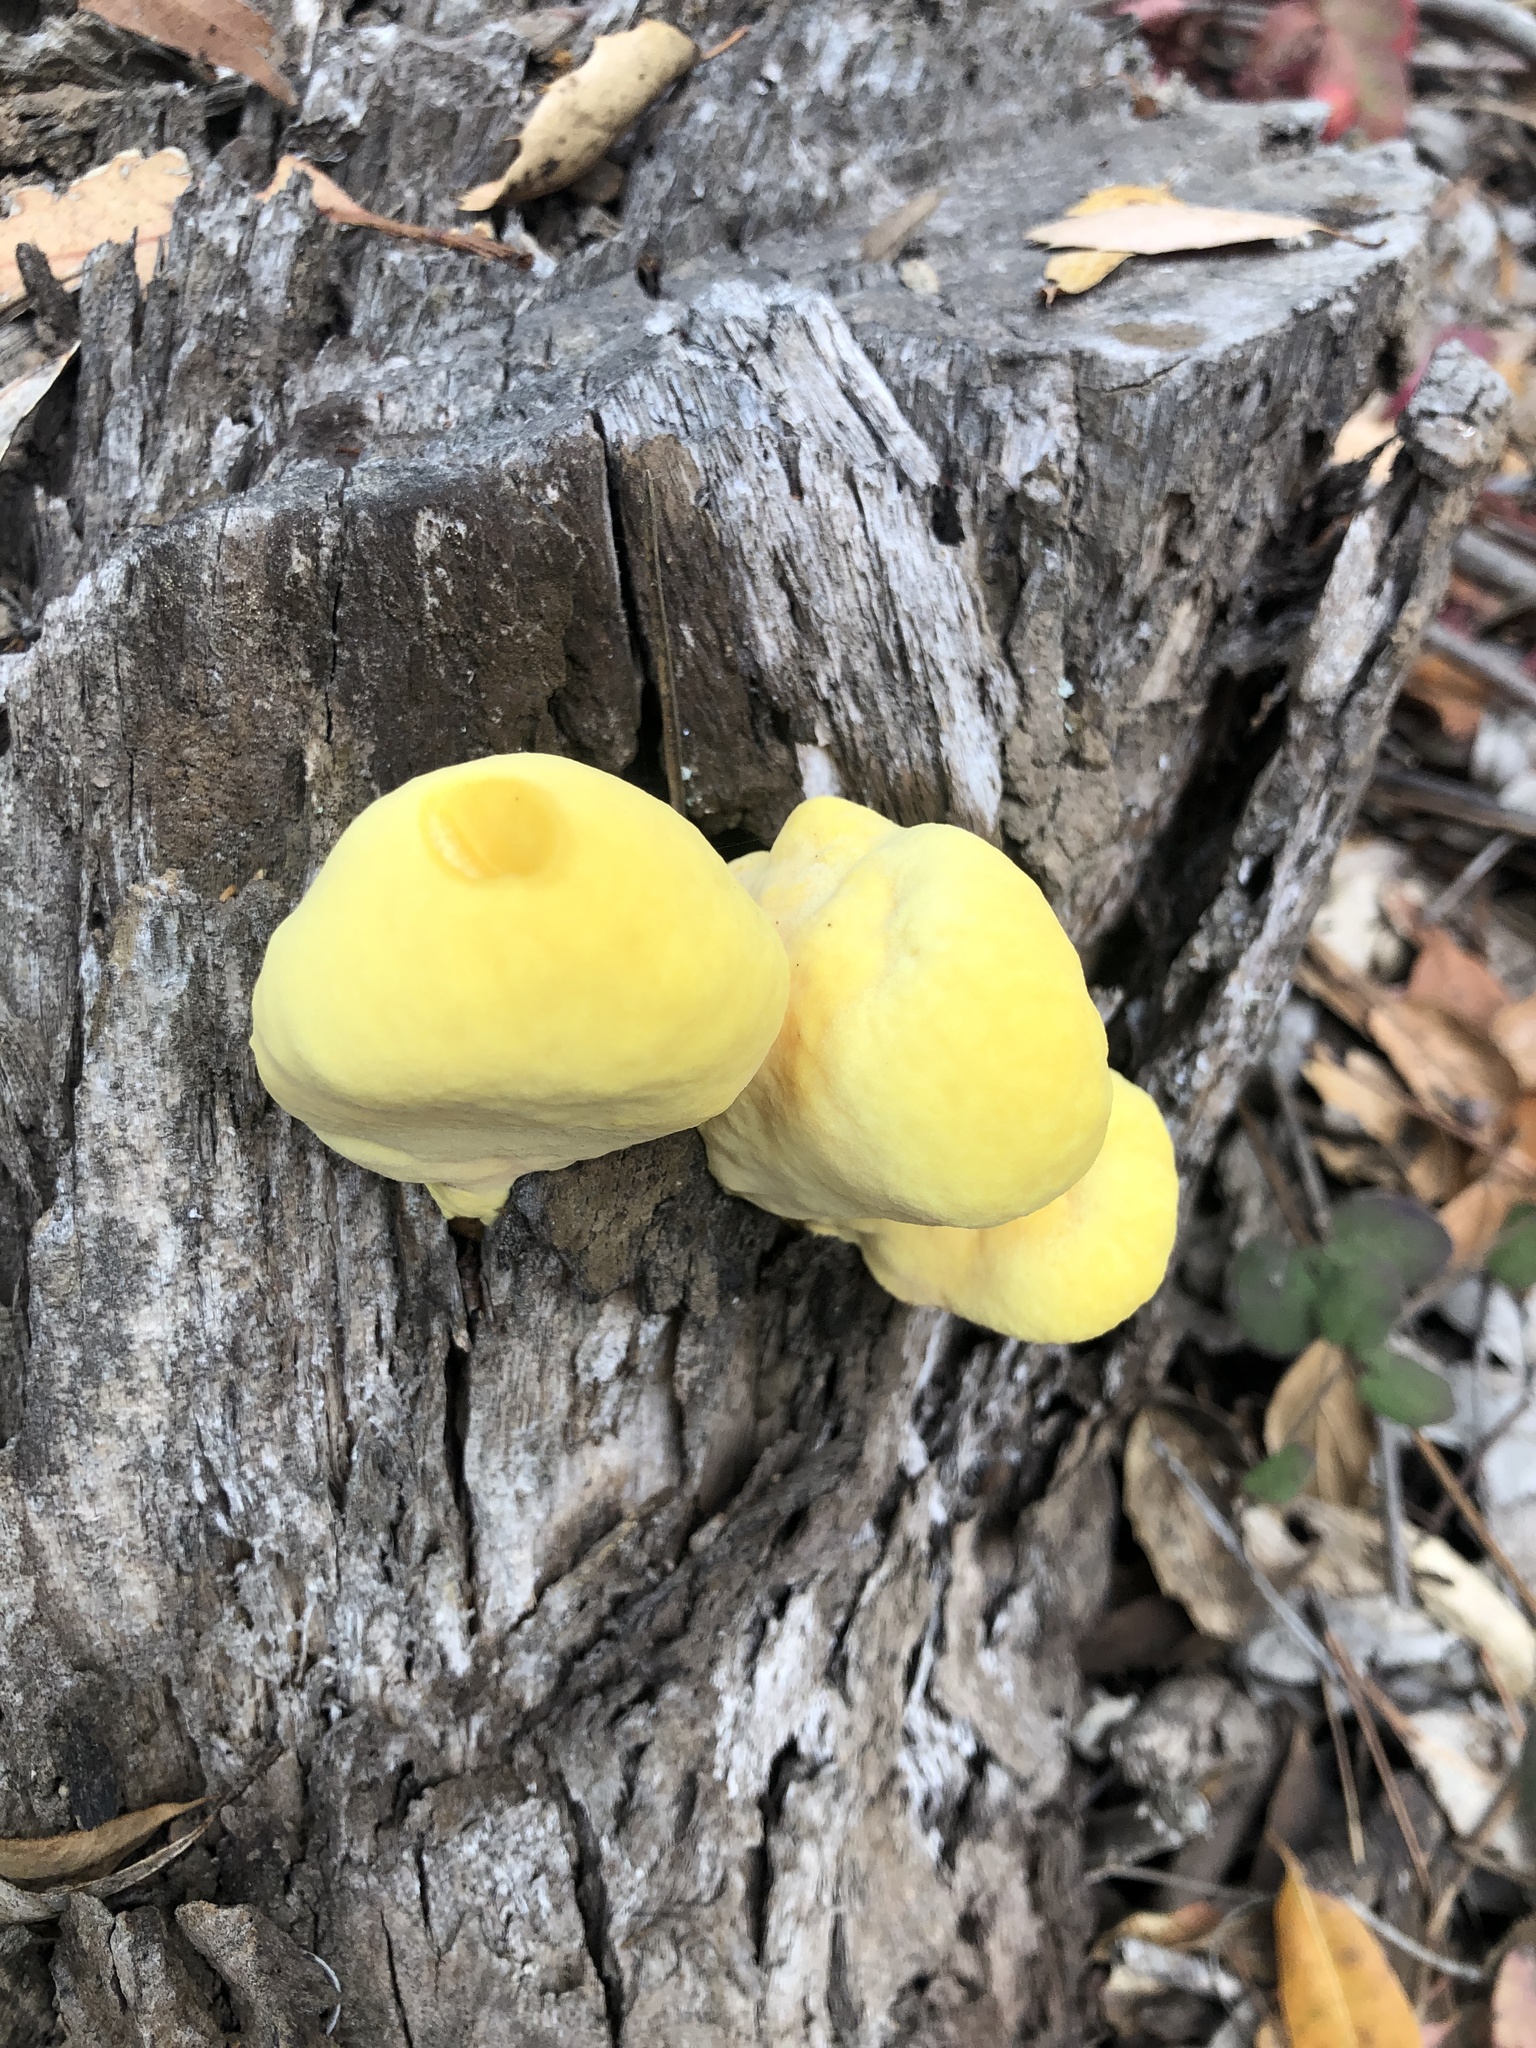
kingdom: Fungi
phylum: Basidiomycota
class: Agaricomycetes
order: Polyporales
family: Laetiporaceae
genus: Laetiporus
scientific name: Laetiporus gilbertsonii
